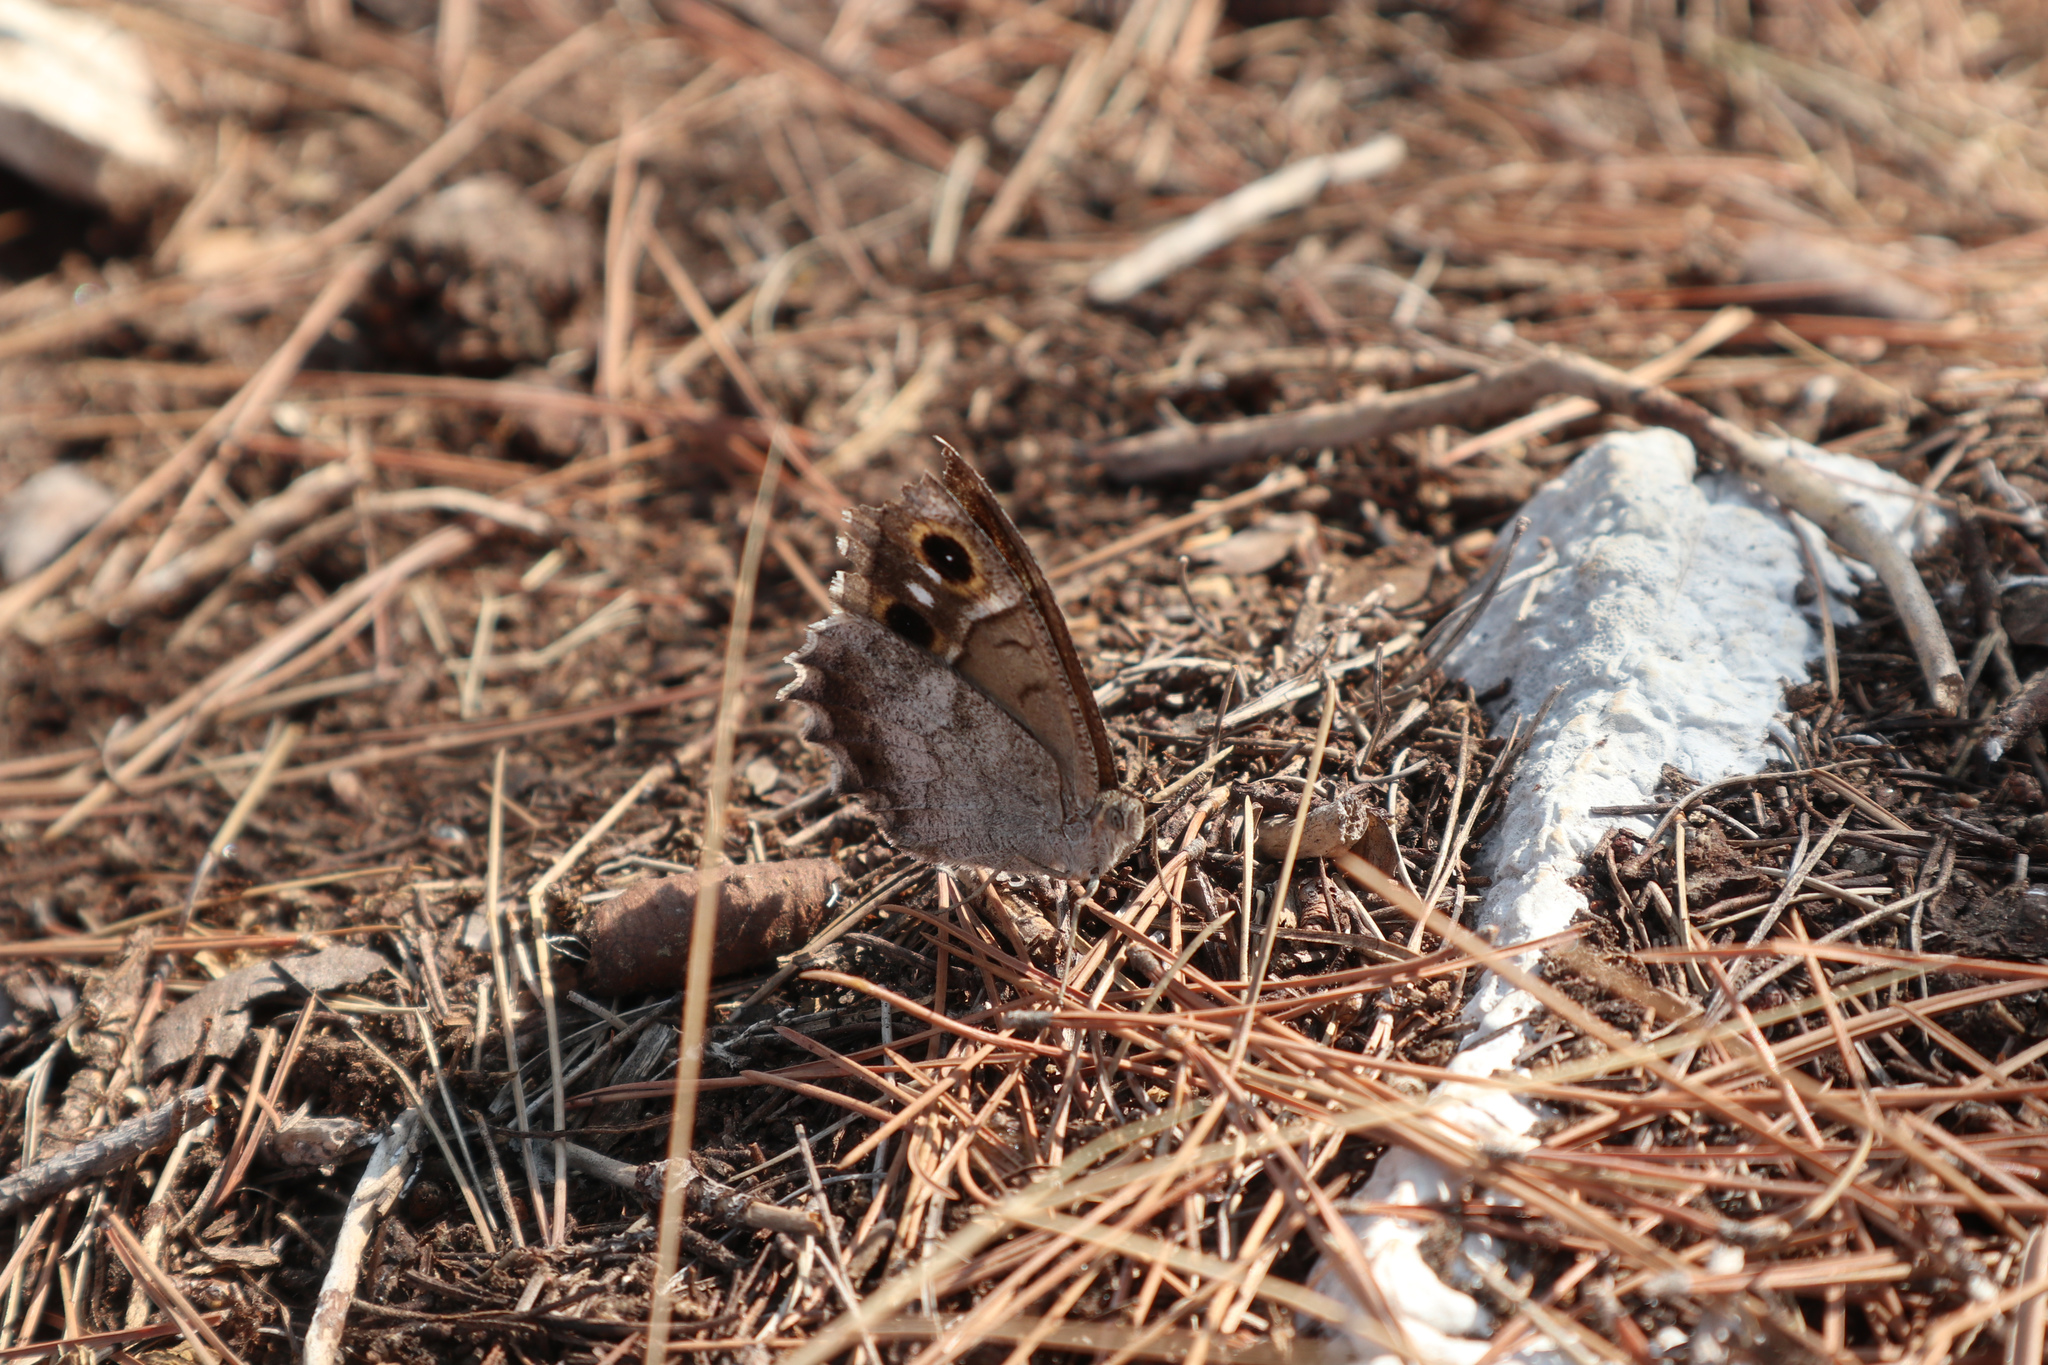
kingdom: Animalia
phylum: Arthropoda
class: Insecta
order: Lepidoptera
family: Nymphalidae
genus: Hipparchia
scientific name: Hipparchia statilinus
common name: Tree grayling
